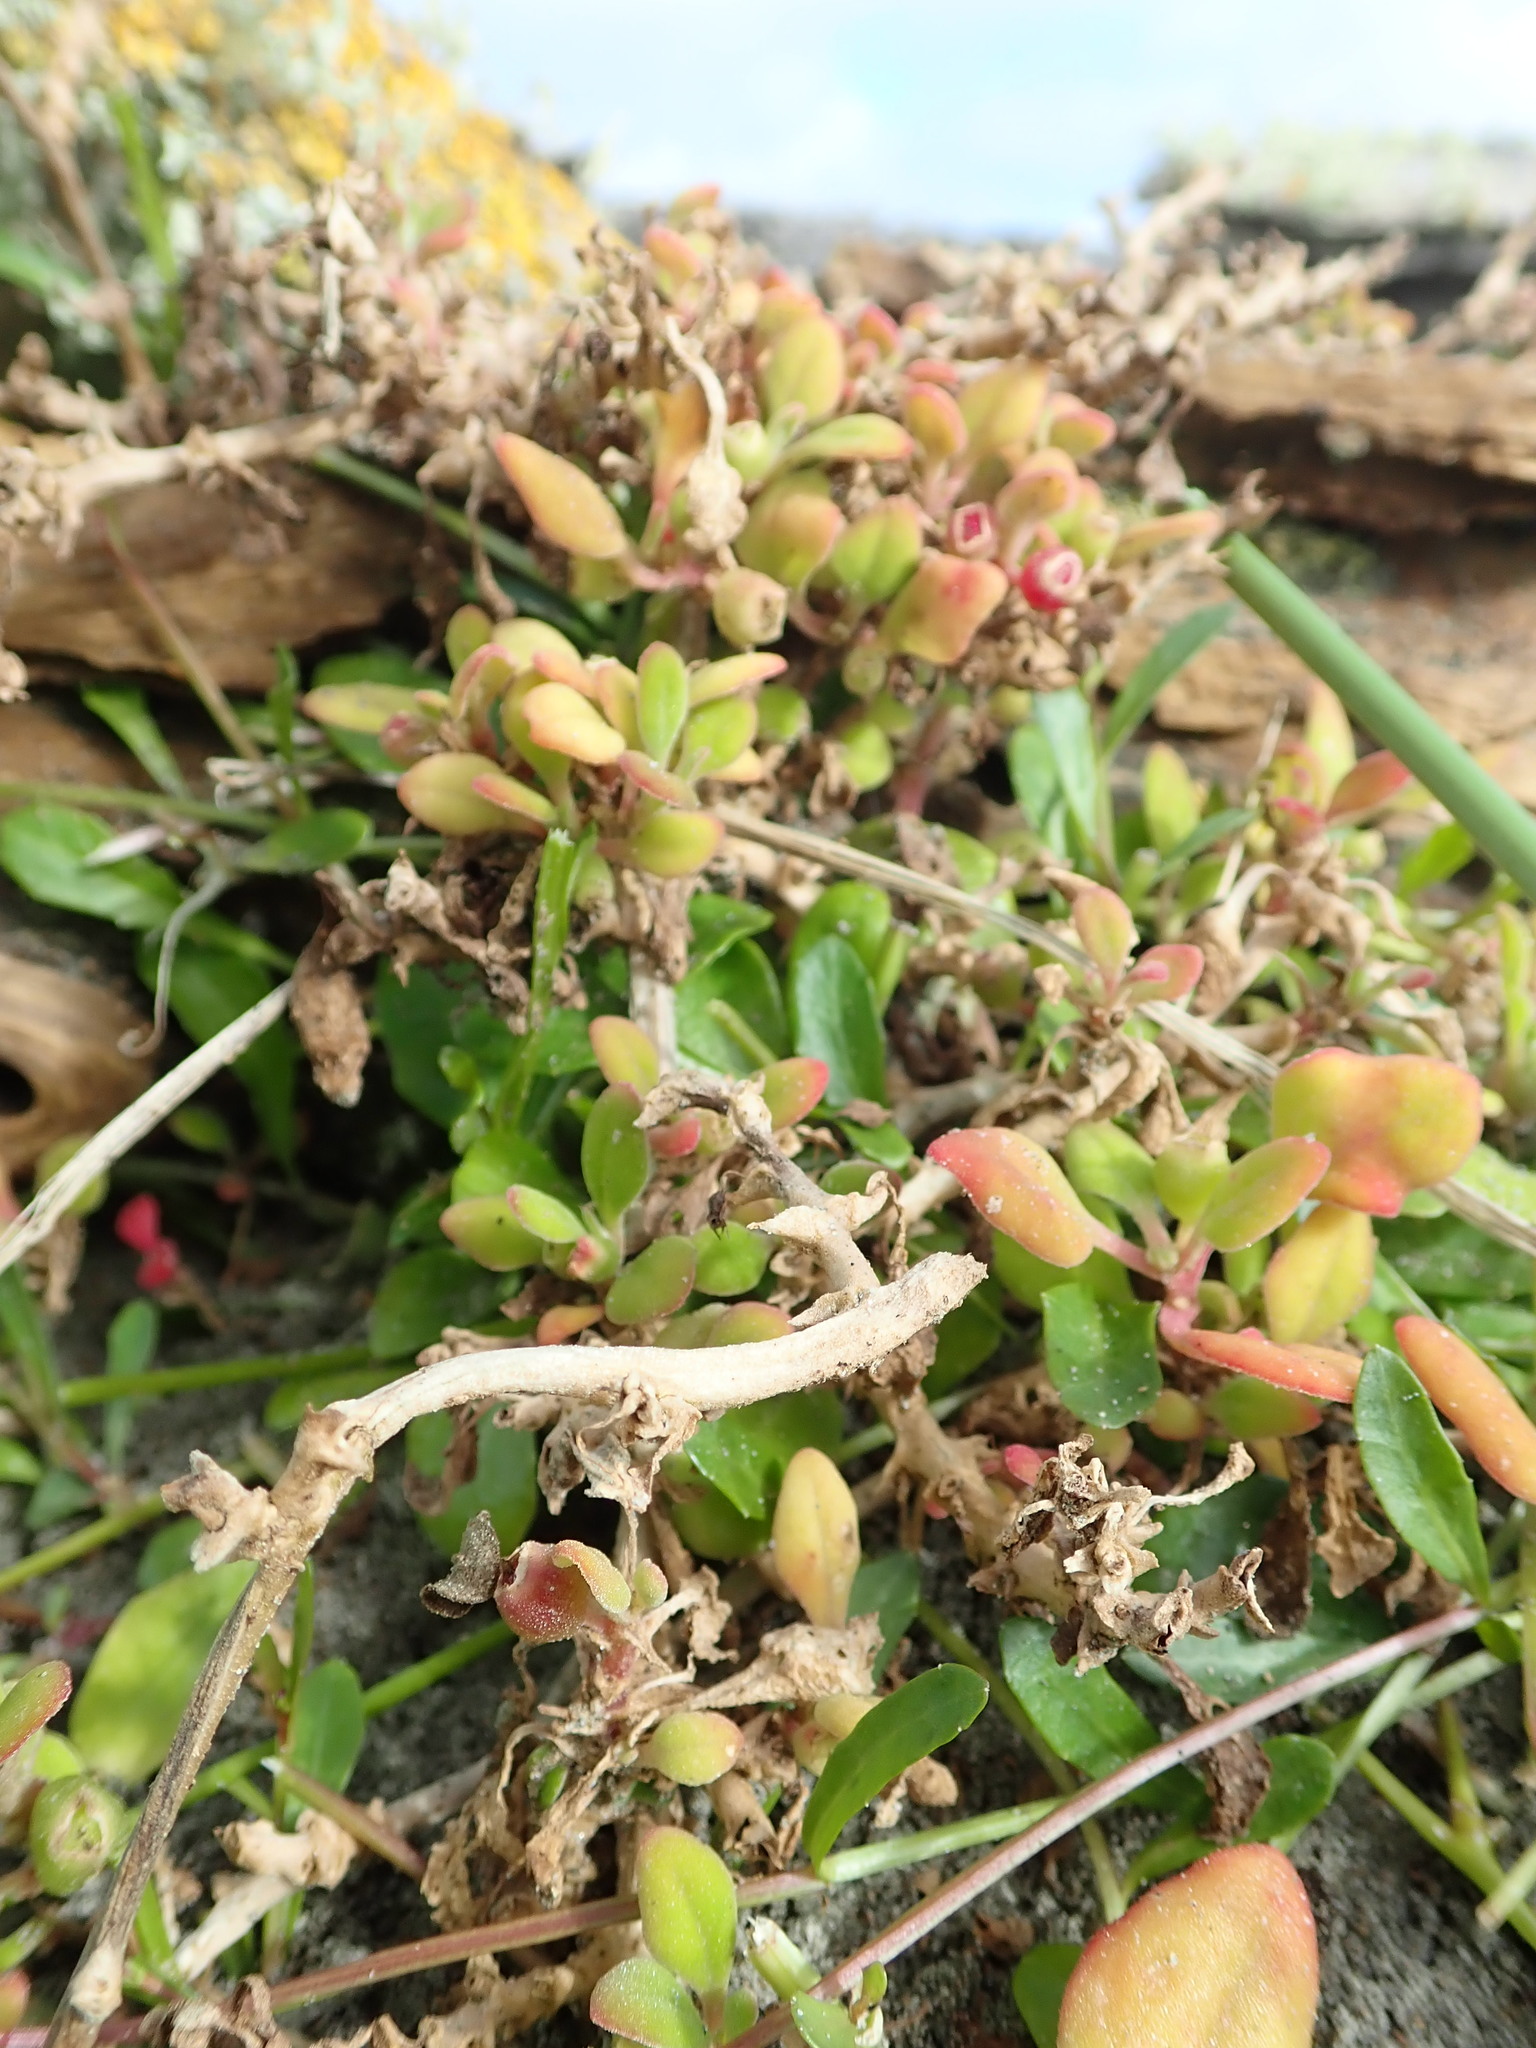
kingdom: Plantae
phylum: Tracheophyta
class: Magnoliopsida
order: Caryophyllales
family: Aizoaceae
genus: Tetragonia
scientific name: Tetragonia implexicoma
